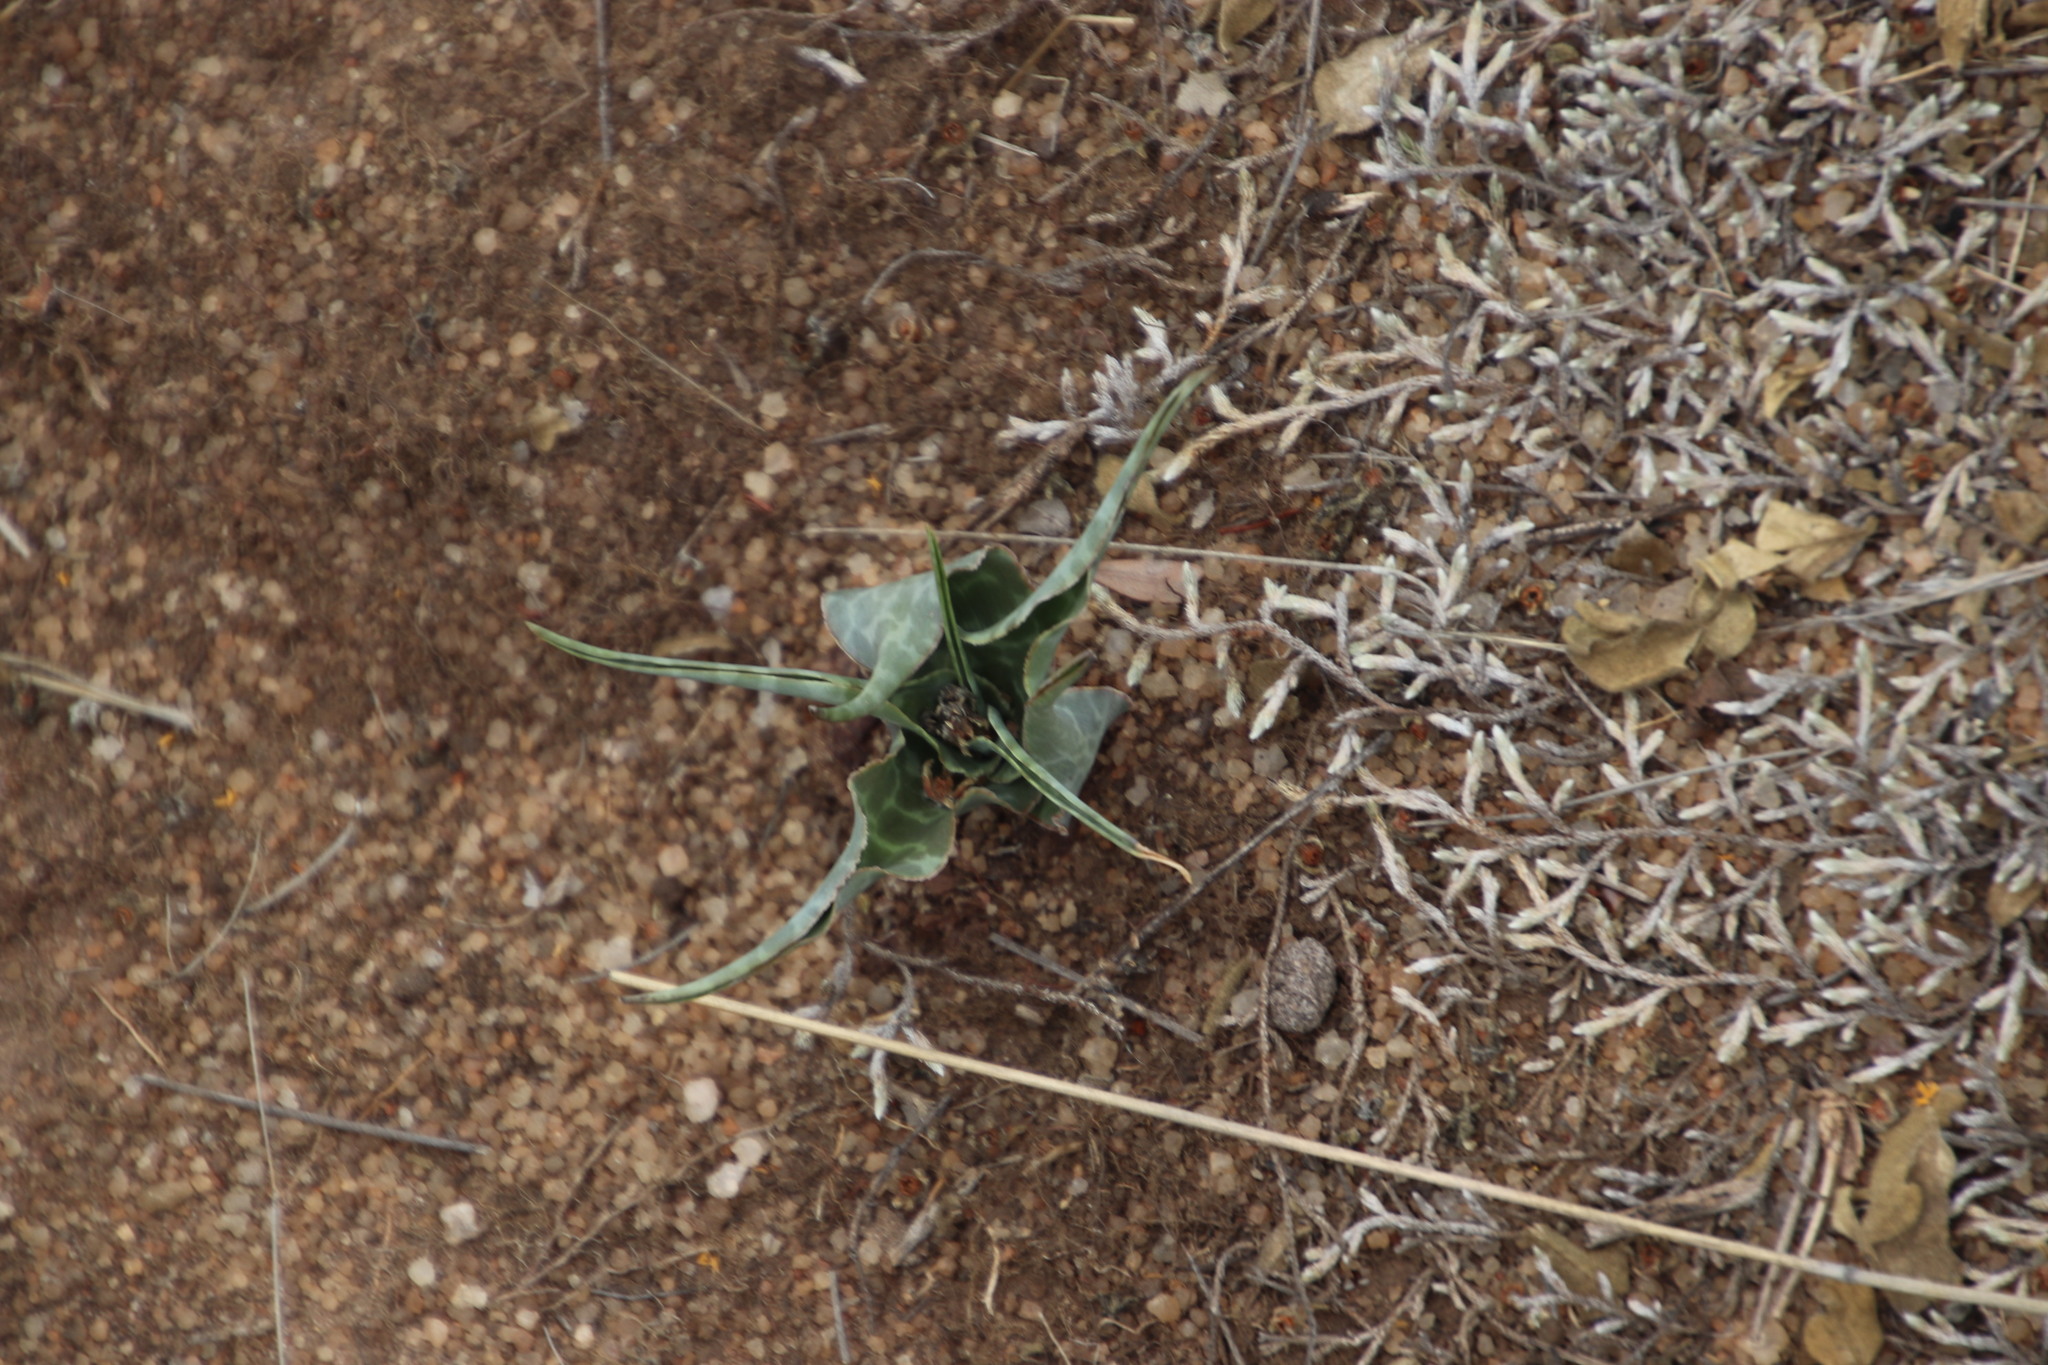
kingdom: Plantae
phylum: Tracheophyta
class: Liliopsida
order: Asparagales
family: Asparagaceae
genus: Ledebouria
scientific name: Ledebouria inquinata
